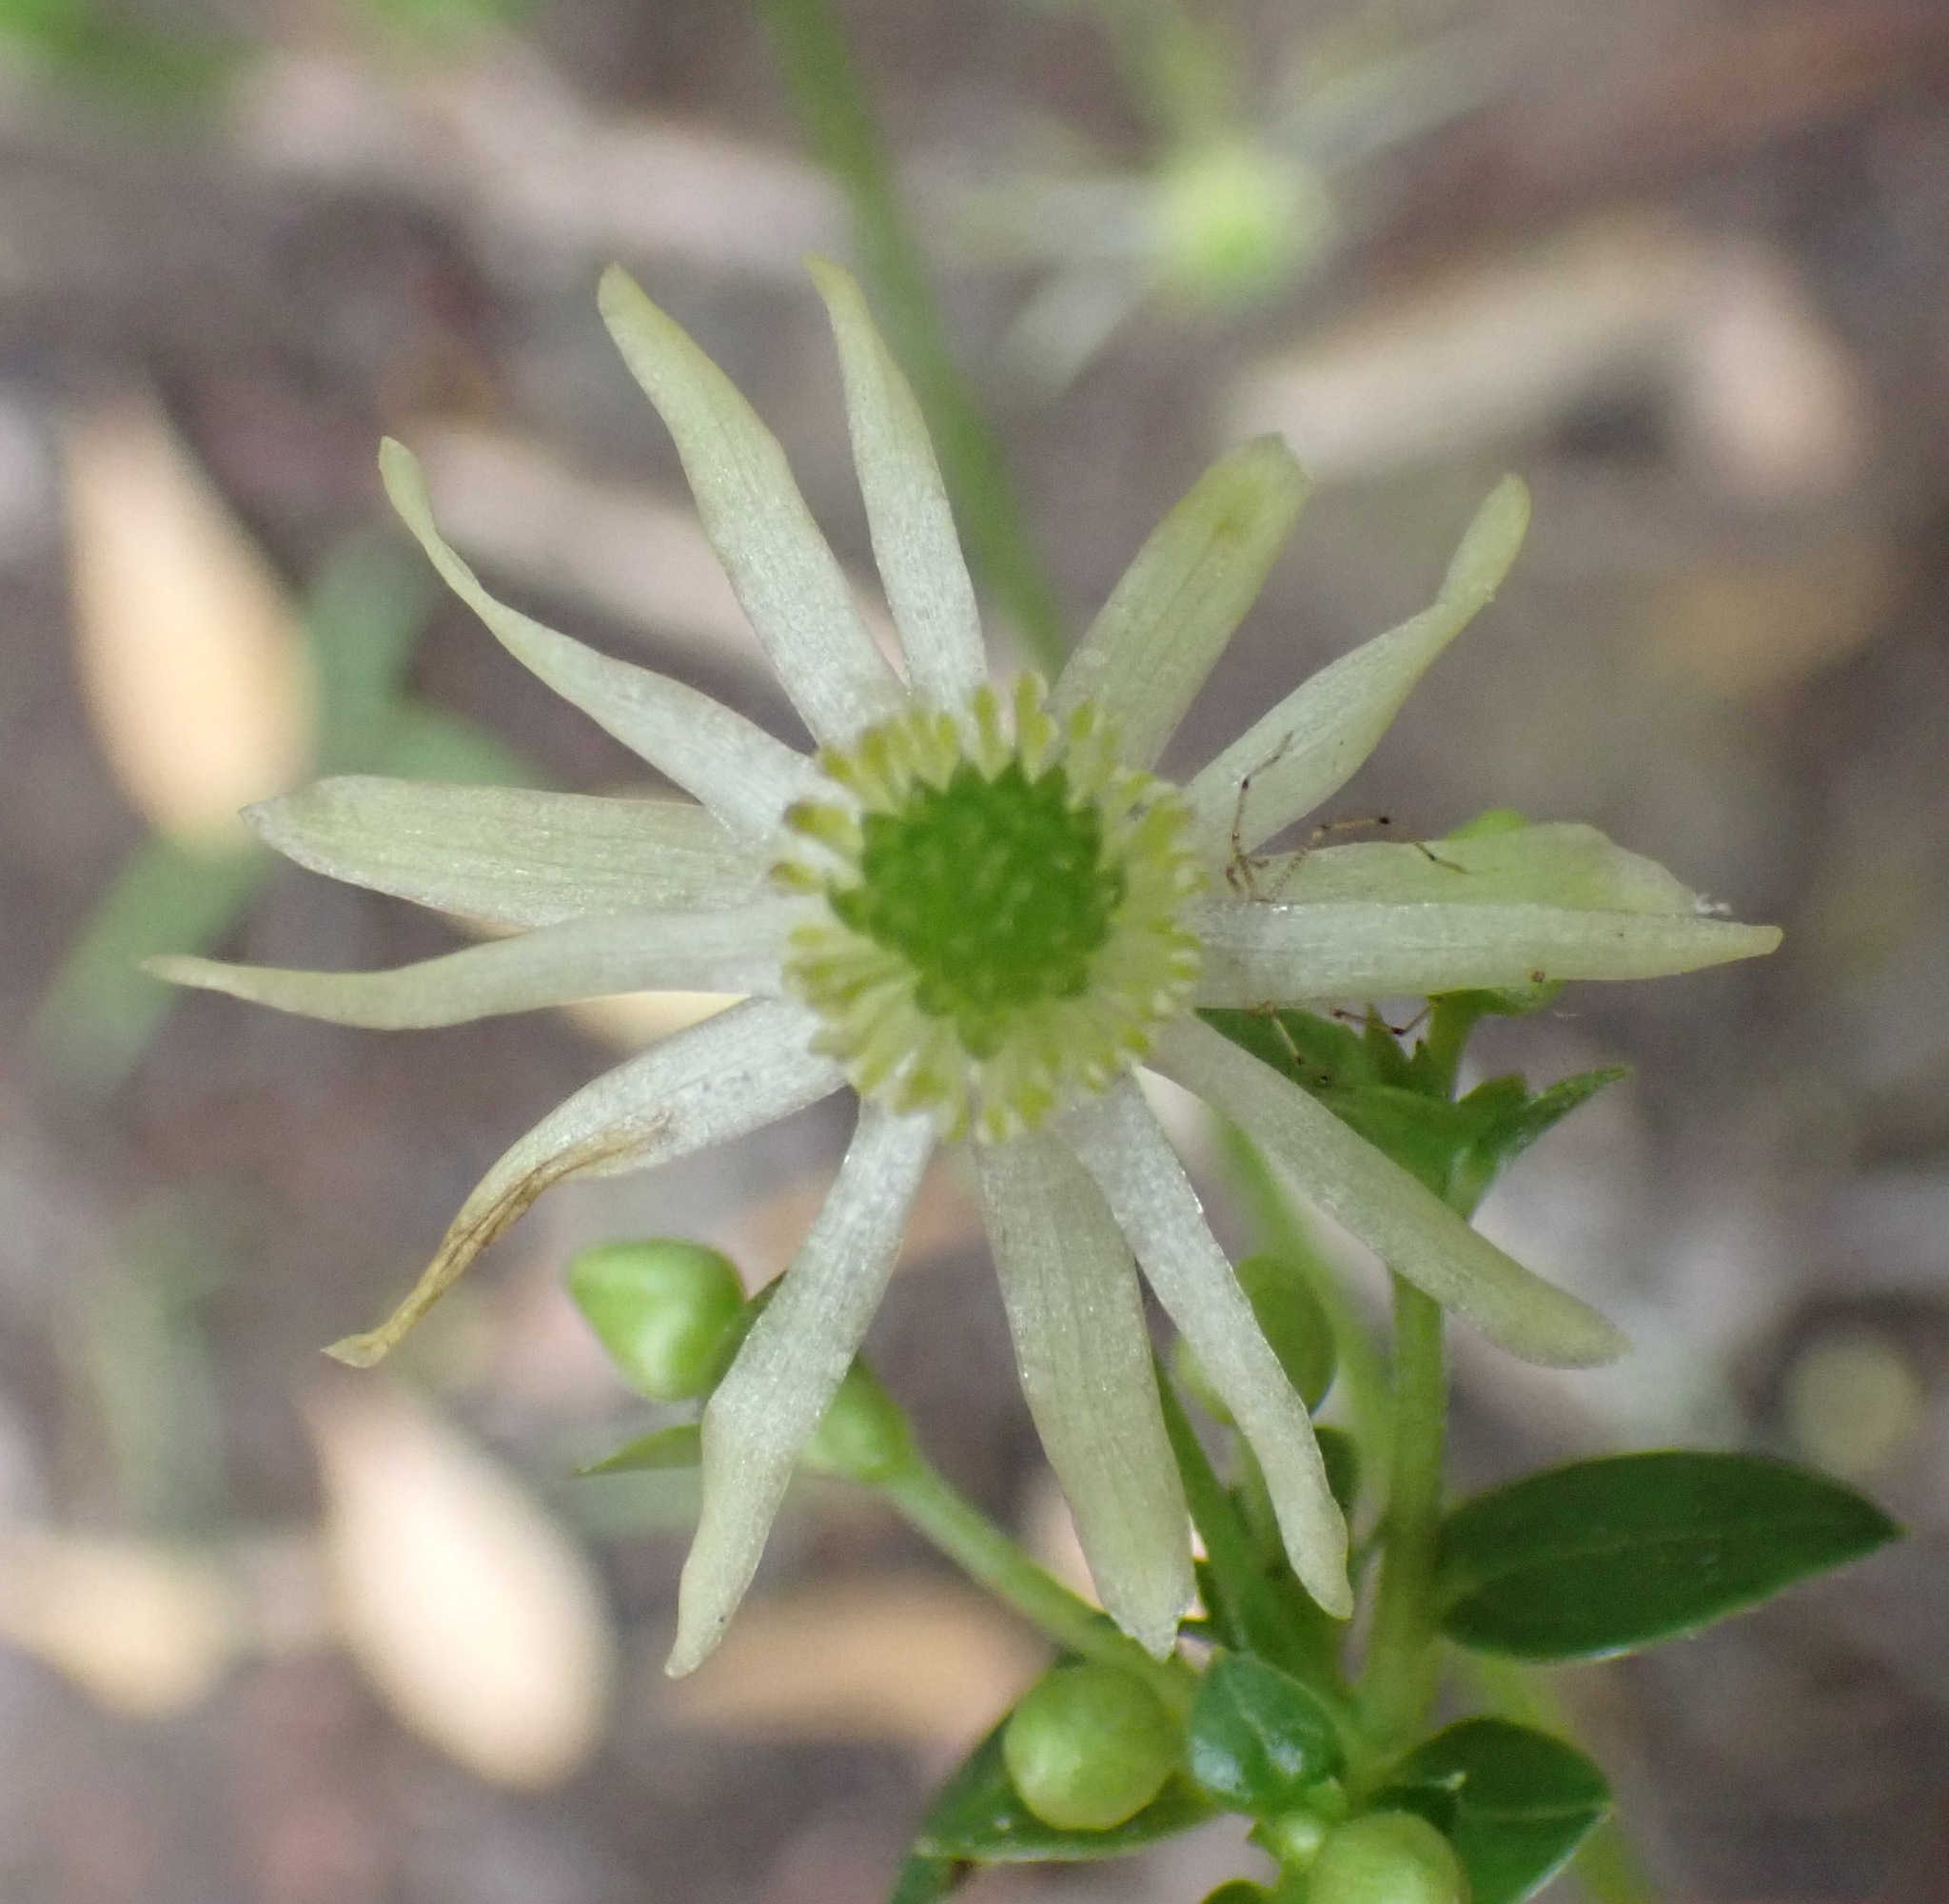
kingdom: Plantae
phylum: Tracheophyta
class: Magnoliopsida
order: Ranunculales
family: Ranunculaceae
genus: Knowltonia
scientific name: Knowltonia vesicatoria
